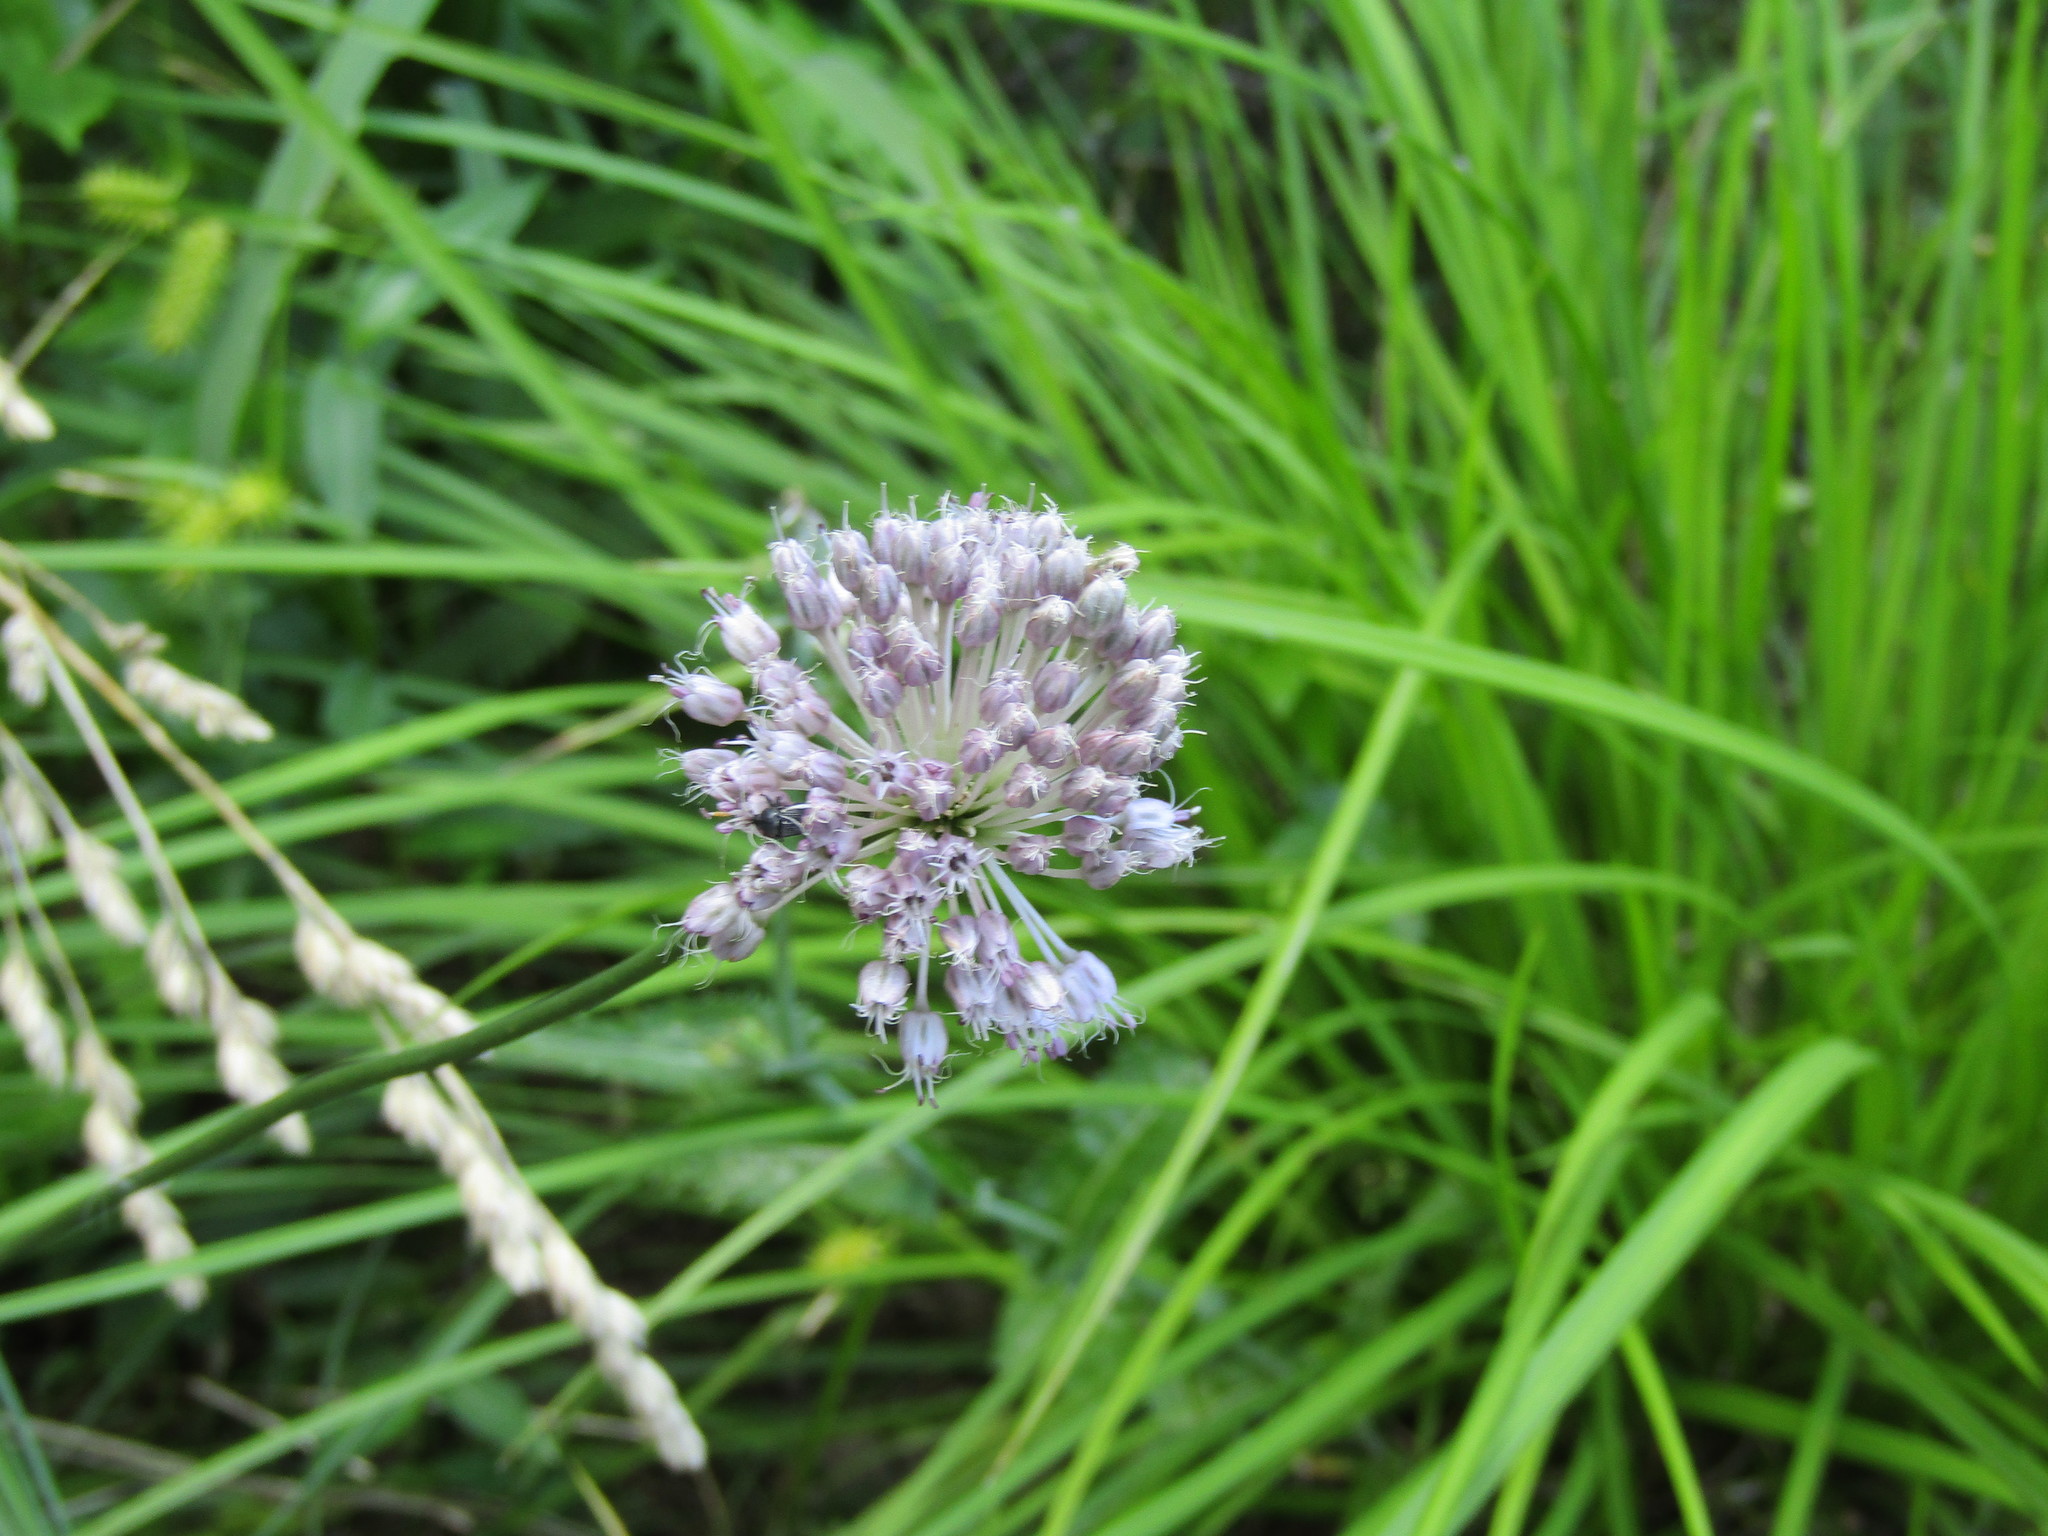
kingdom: Plantae
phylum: Tracheophyta
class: Liliopsida
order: Asparagales
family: Amaryllidaceae
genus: Allium
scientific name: Allium vineale
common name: Crow garlic
